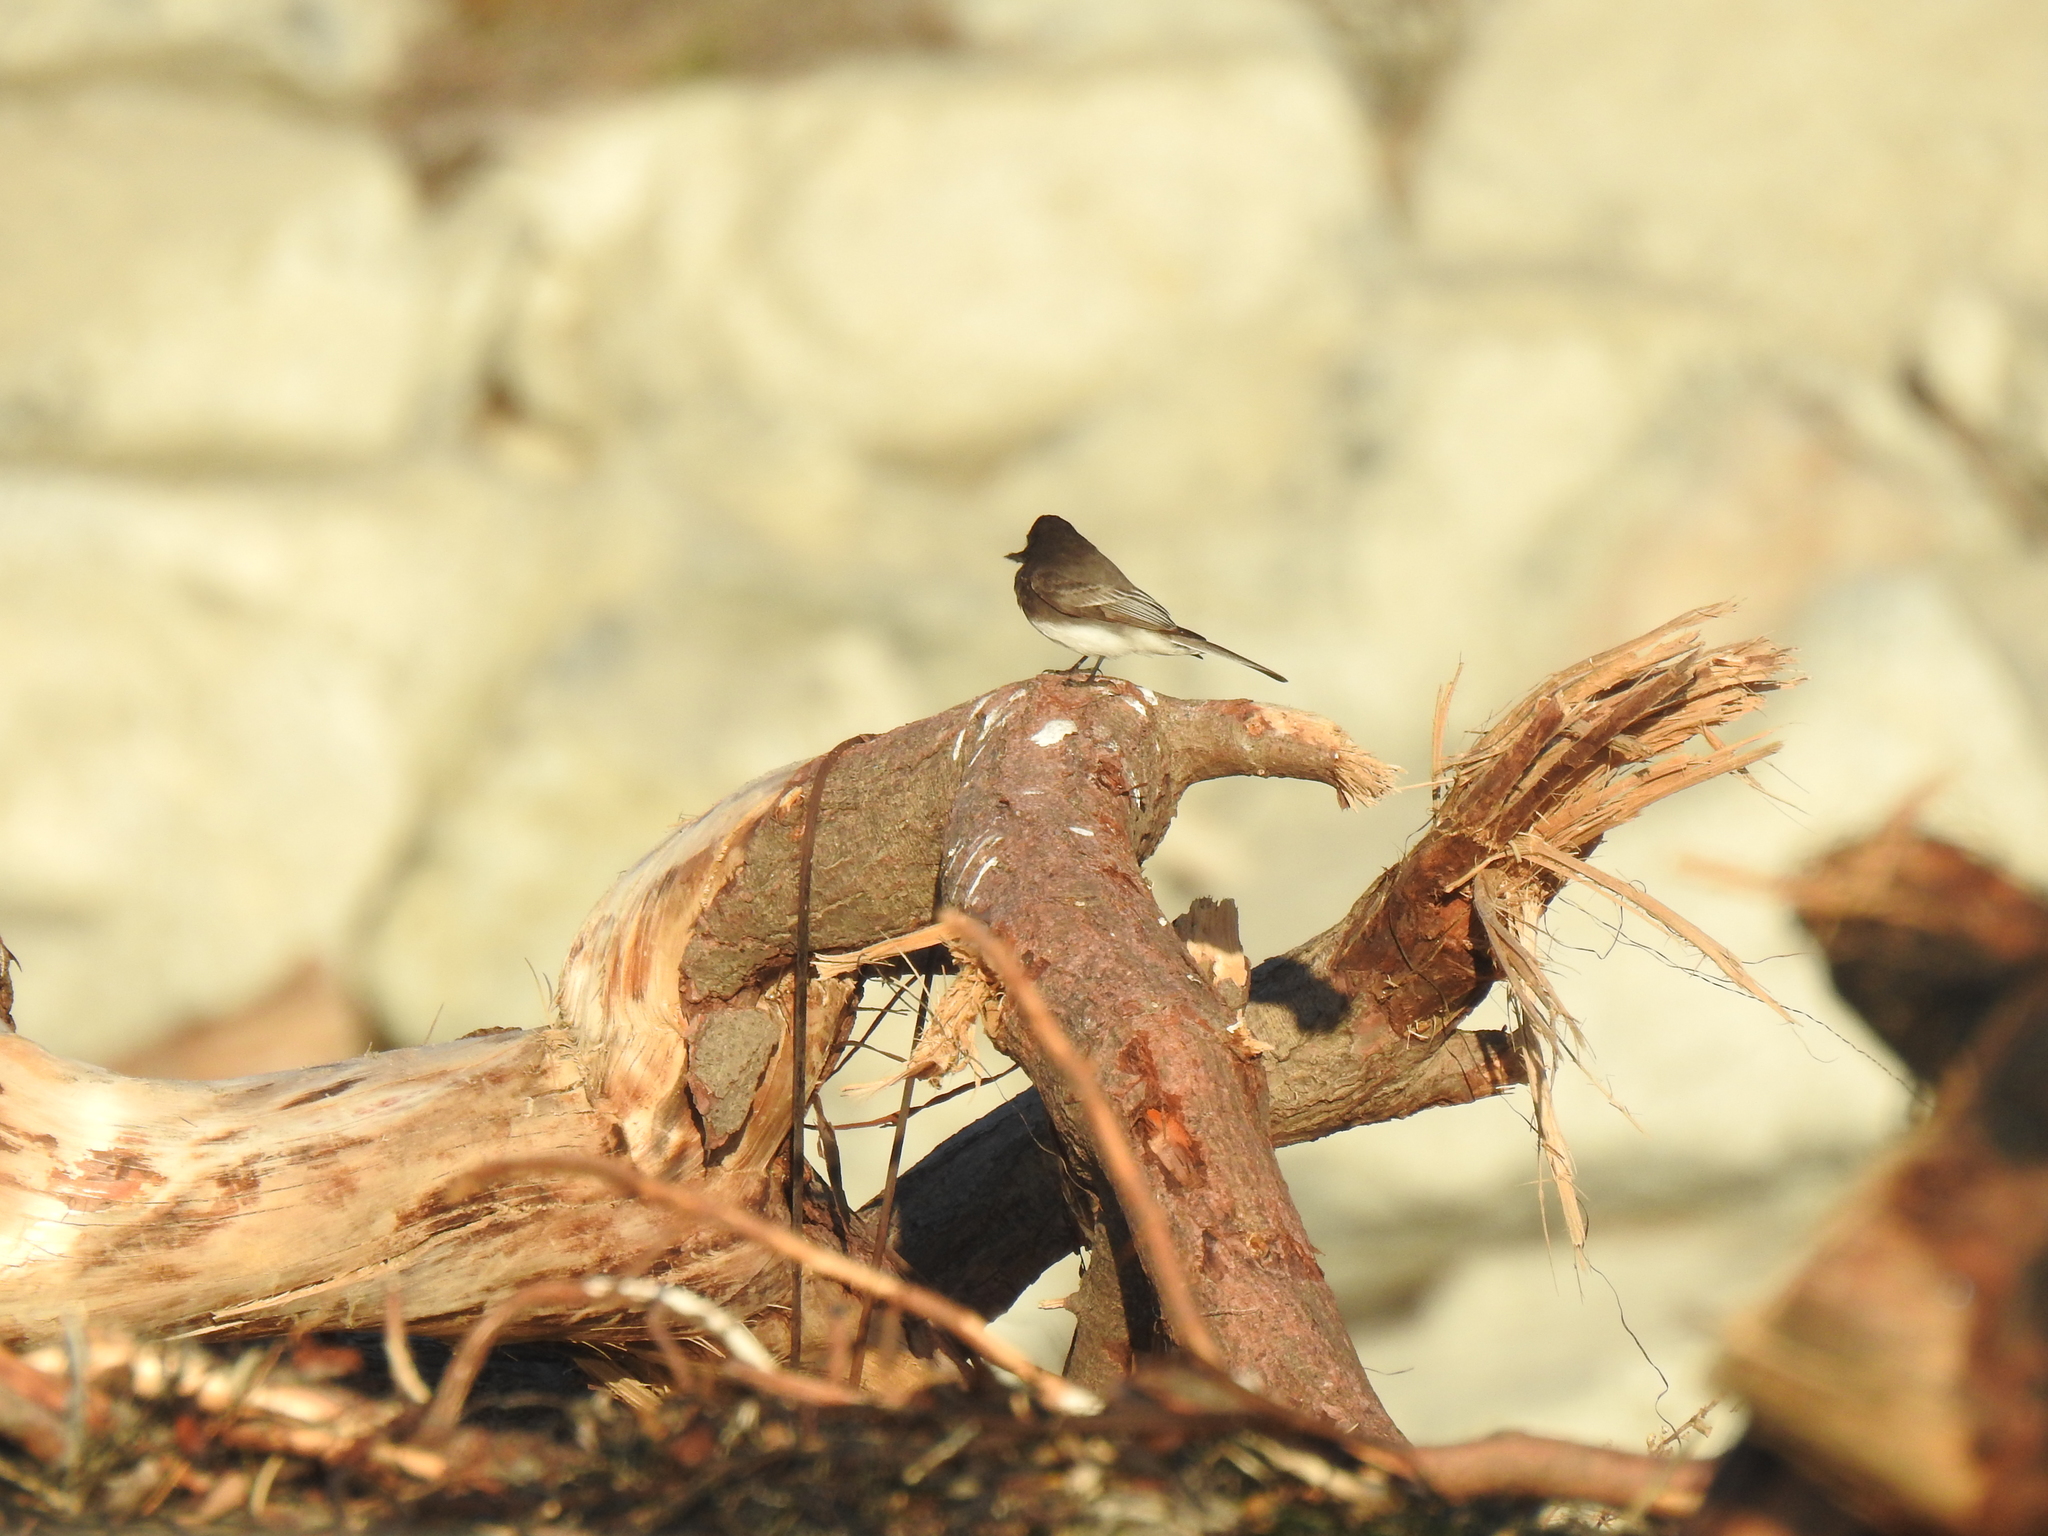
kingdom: Animalia
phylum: Chordata
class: Aves
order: Passeriformes
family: Tyrannidae
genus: Sayornis
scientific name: Sayornis nigricans
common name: Black phoebe
